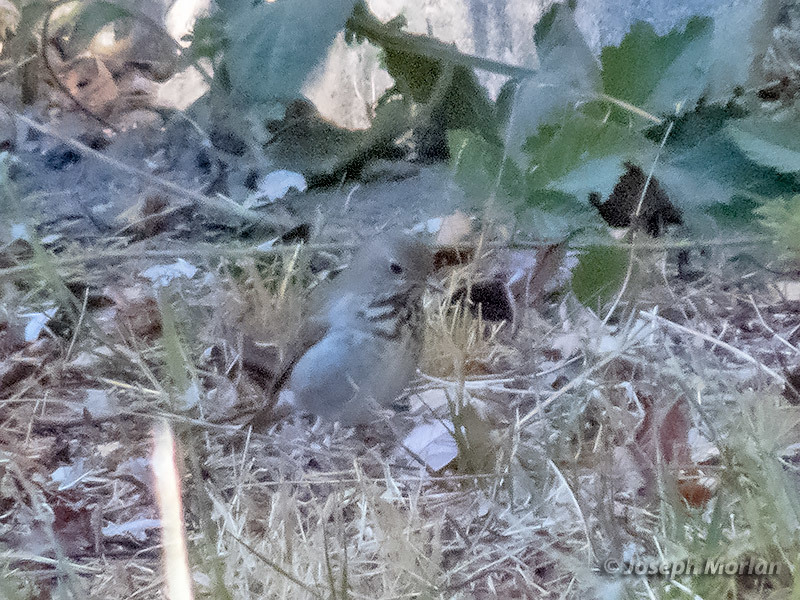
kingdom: Animalia
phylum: Chordata
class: Aves
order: Passeriformes
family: Turdidae
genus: Catharus
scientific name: Catharus guttatus
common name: Hermit thrush
